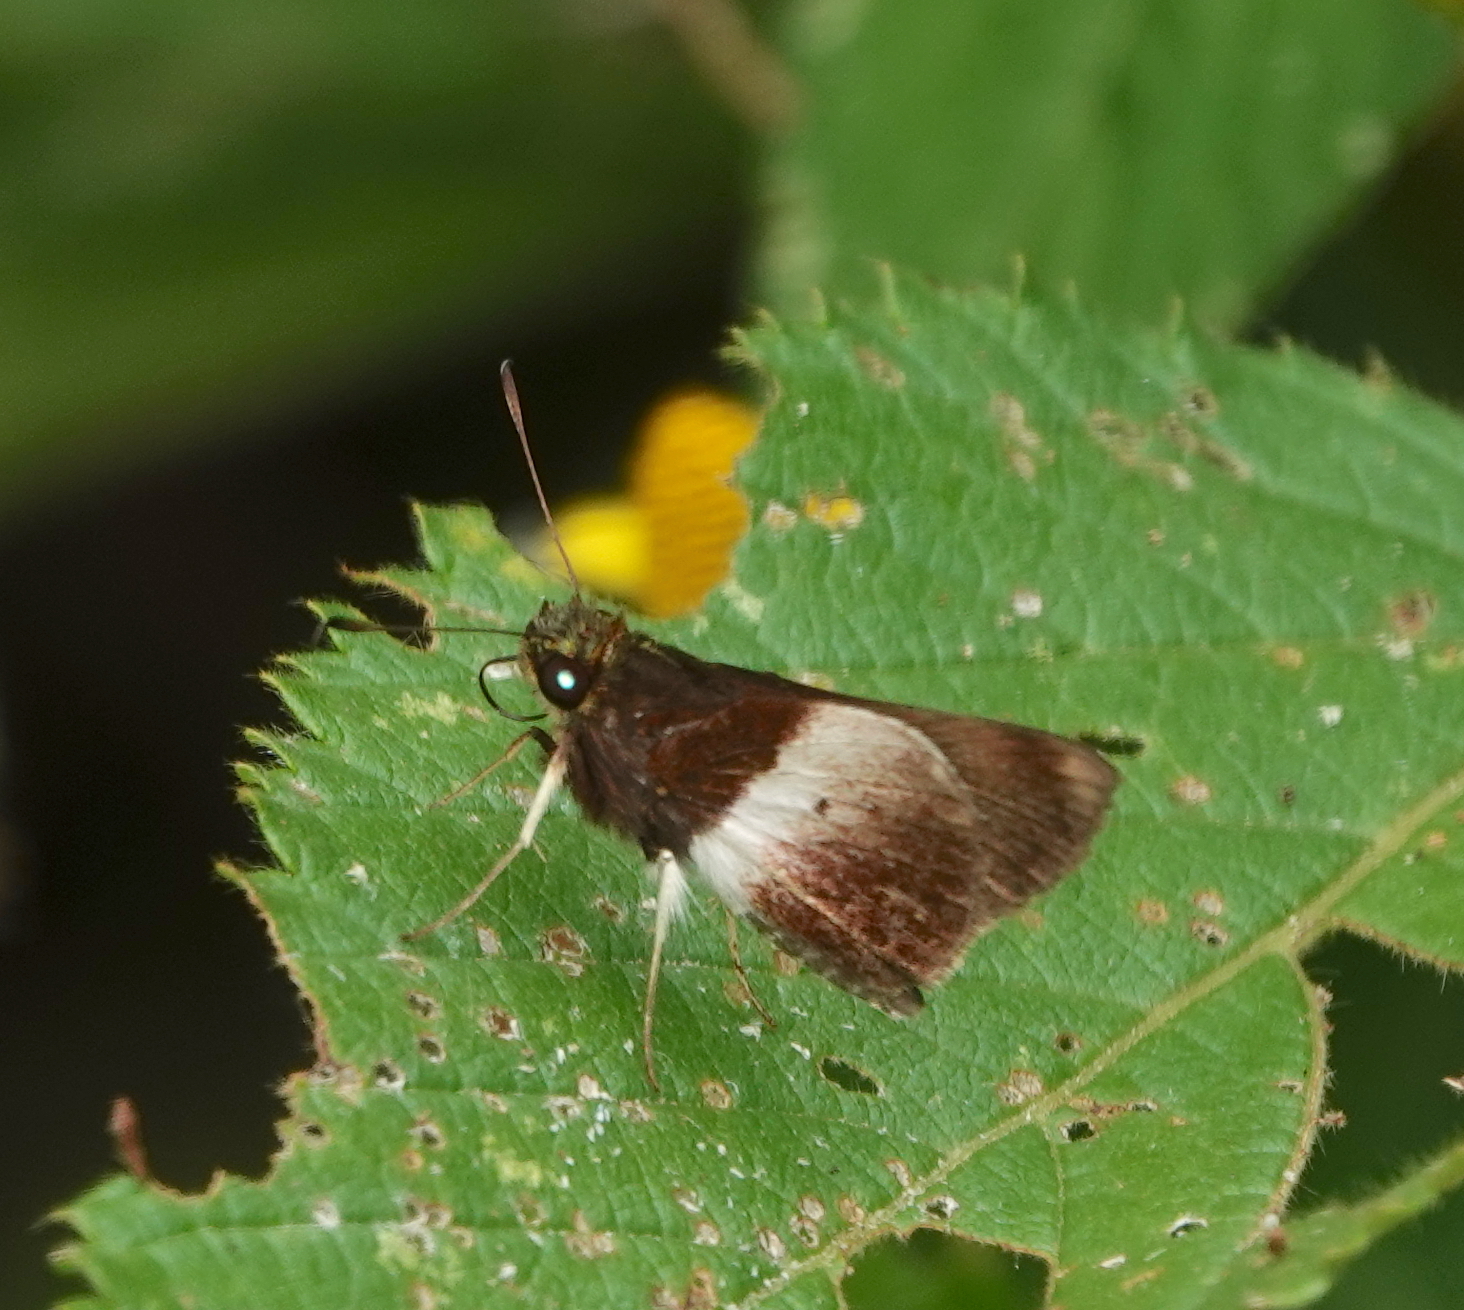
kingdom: Animalia
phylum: Arthropoda
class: Insecta
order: Lepidoptera
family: Hesperiidae
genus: Moeris
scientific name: Moeris remus
